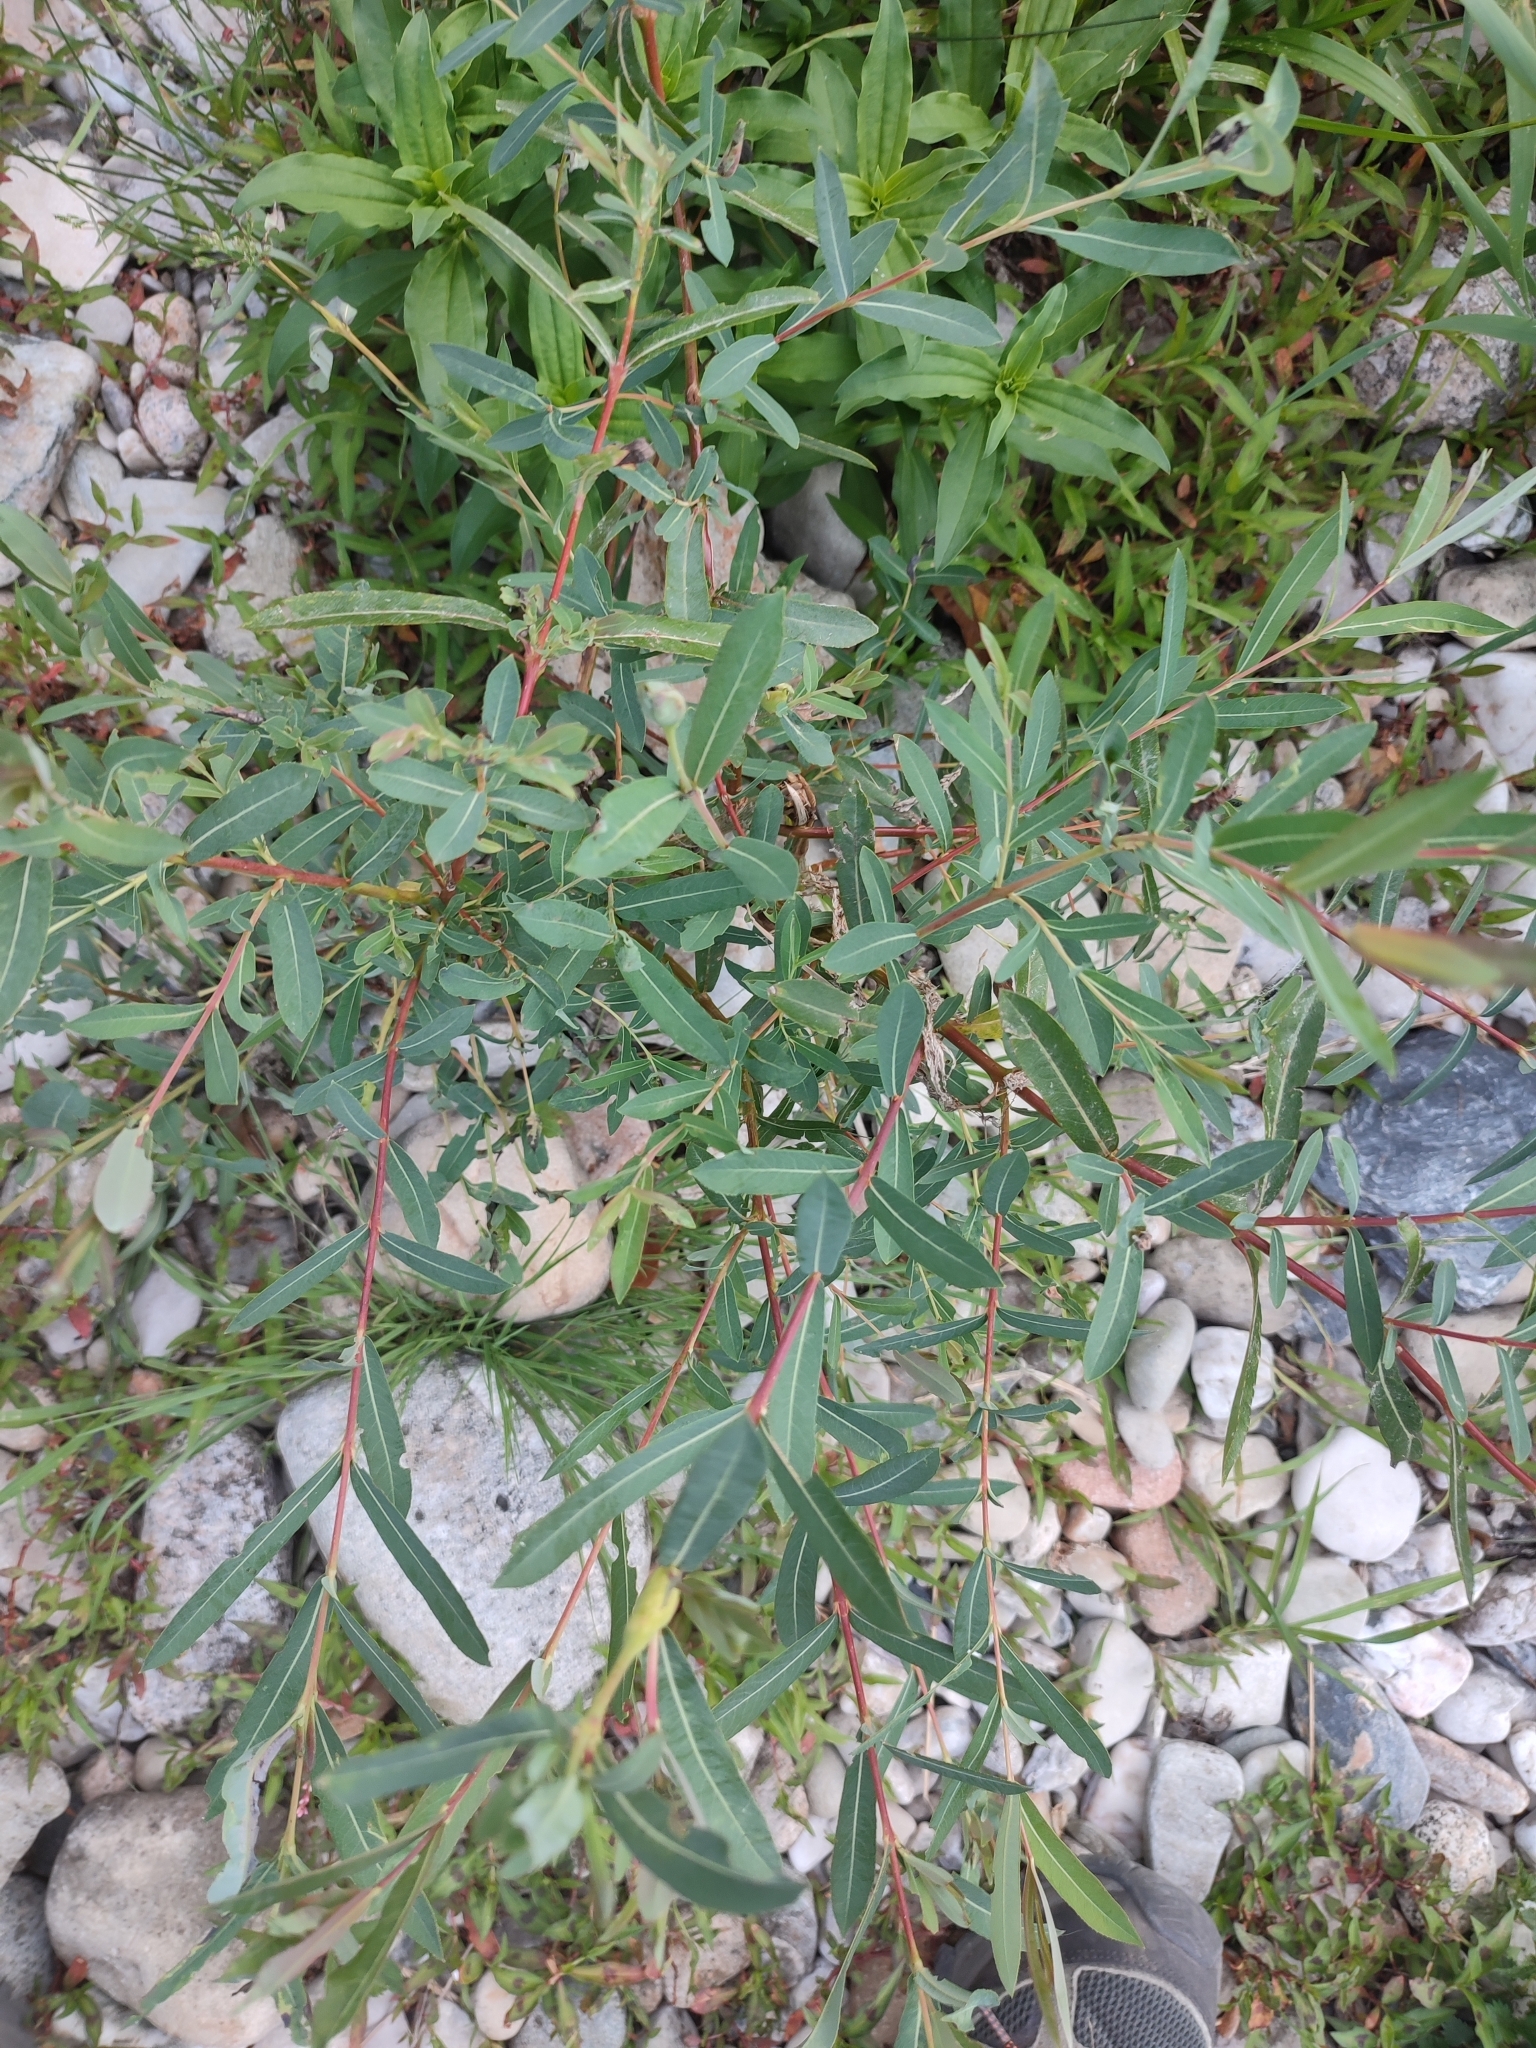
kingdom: Plantae
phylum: Tracheophyta
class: Magnoliopsida
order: Malpighiales
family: Salicaceae
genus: Salix
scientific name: Salix purpurea
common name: Purple willow
